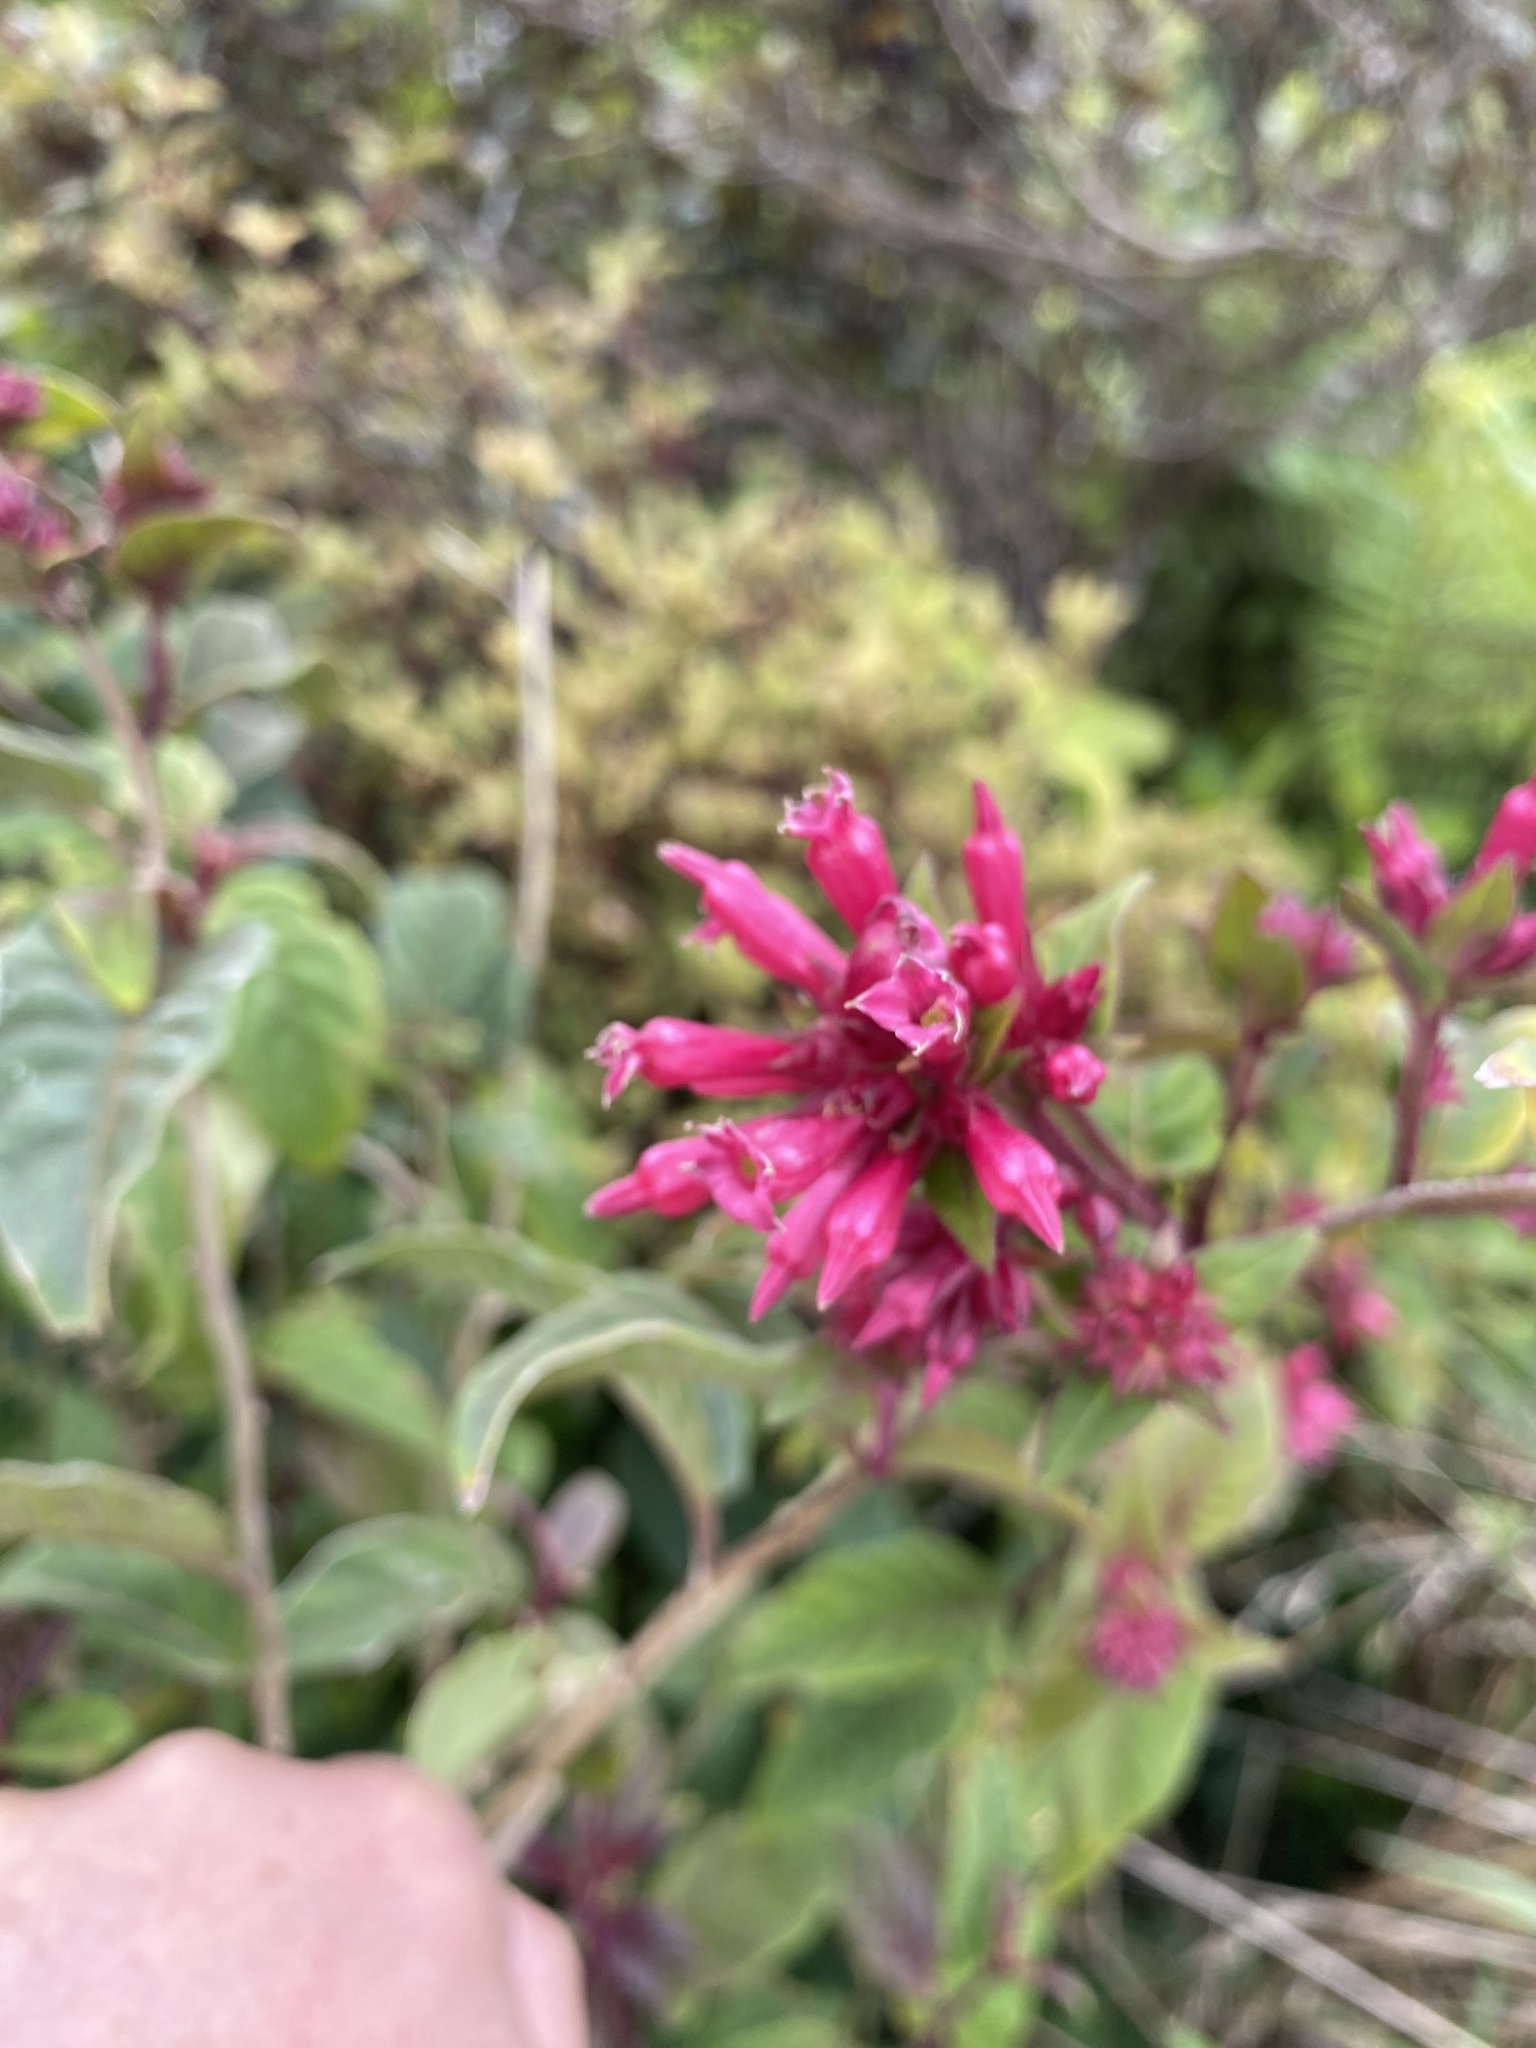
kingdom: Plantae
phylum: Tracheophyta
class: Magnoliopsida
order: Solanales
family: Solanaceae
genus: Cestrum
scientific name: Cestrum elegans
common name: Crimson cestrum
